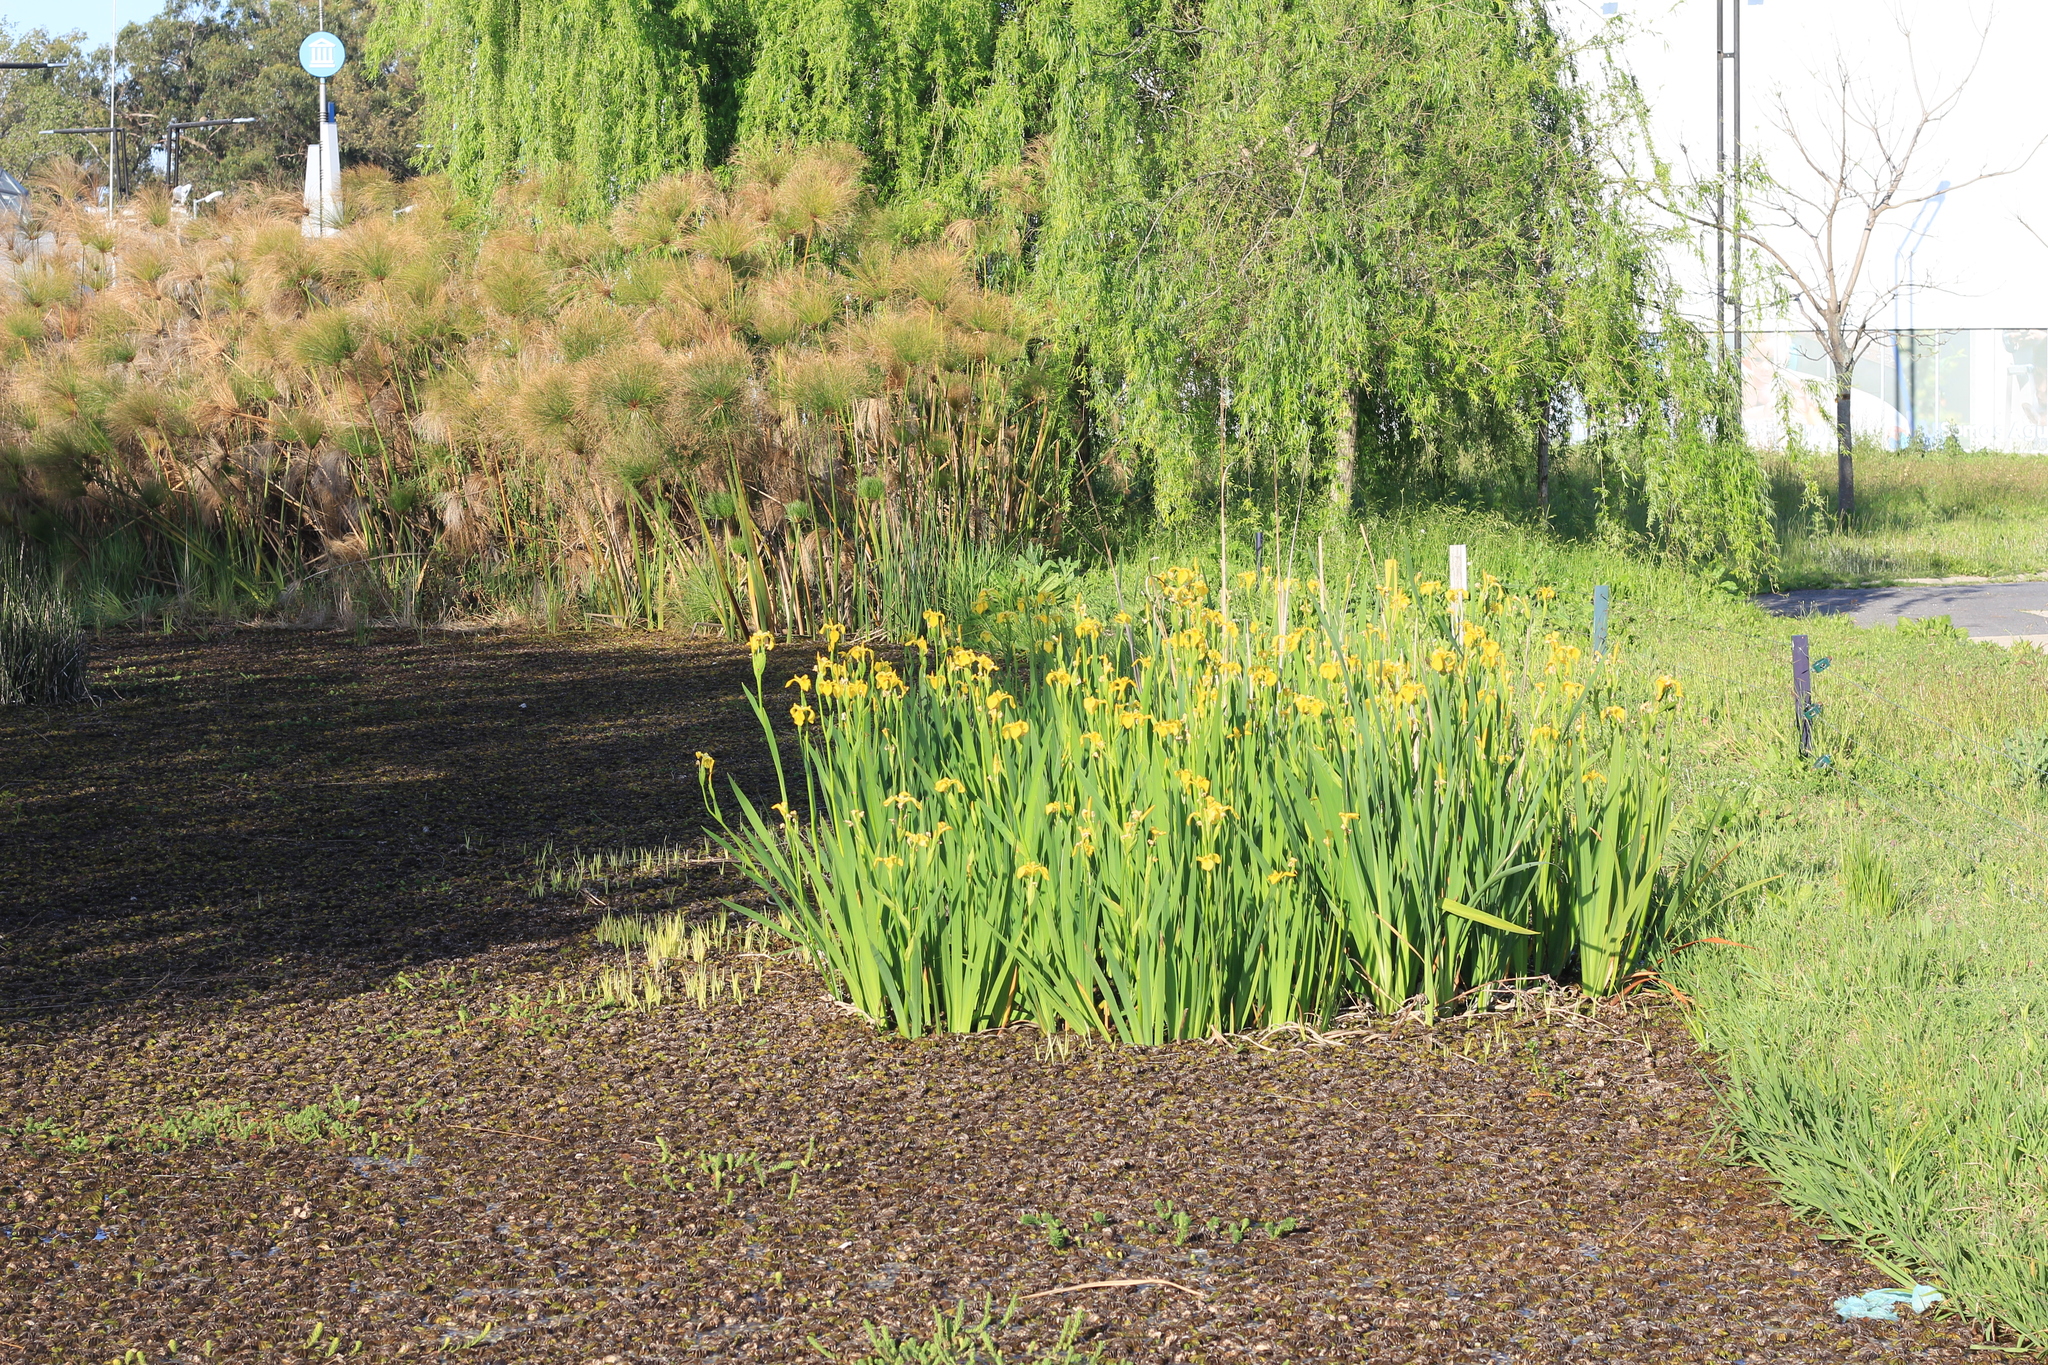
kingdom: Plantae
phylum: Tracheophyta
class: Liliopsida
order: Asparagales
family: Iridaceae
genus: Iris
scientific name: Iris pseudacorus
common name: Yellow flag
